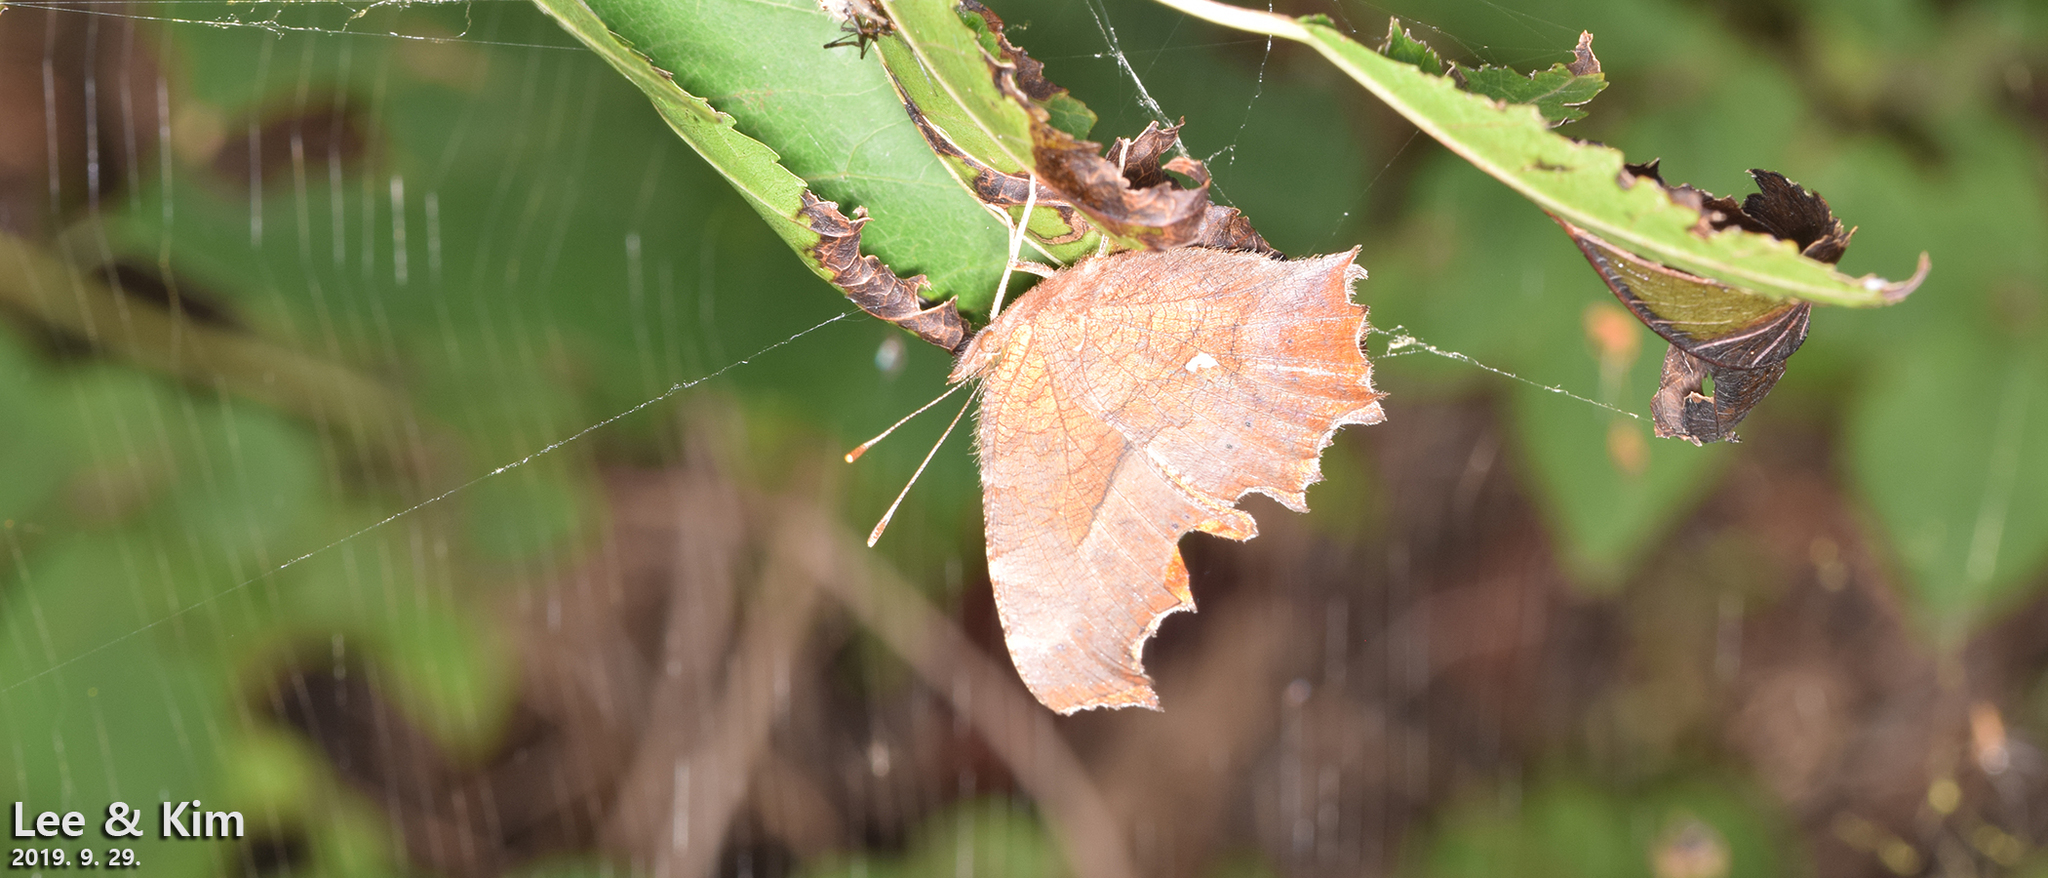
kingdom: Animalia
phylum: Arthropoda
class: Insecta
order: Lepidoptera
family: Nymphalidae
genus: Polygonia
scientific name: Polygonia c-aureum
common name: Asian comma
